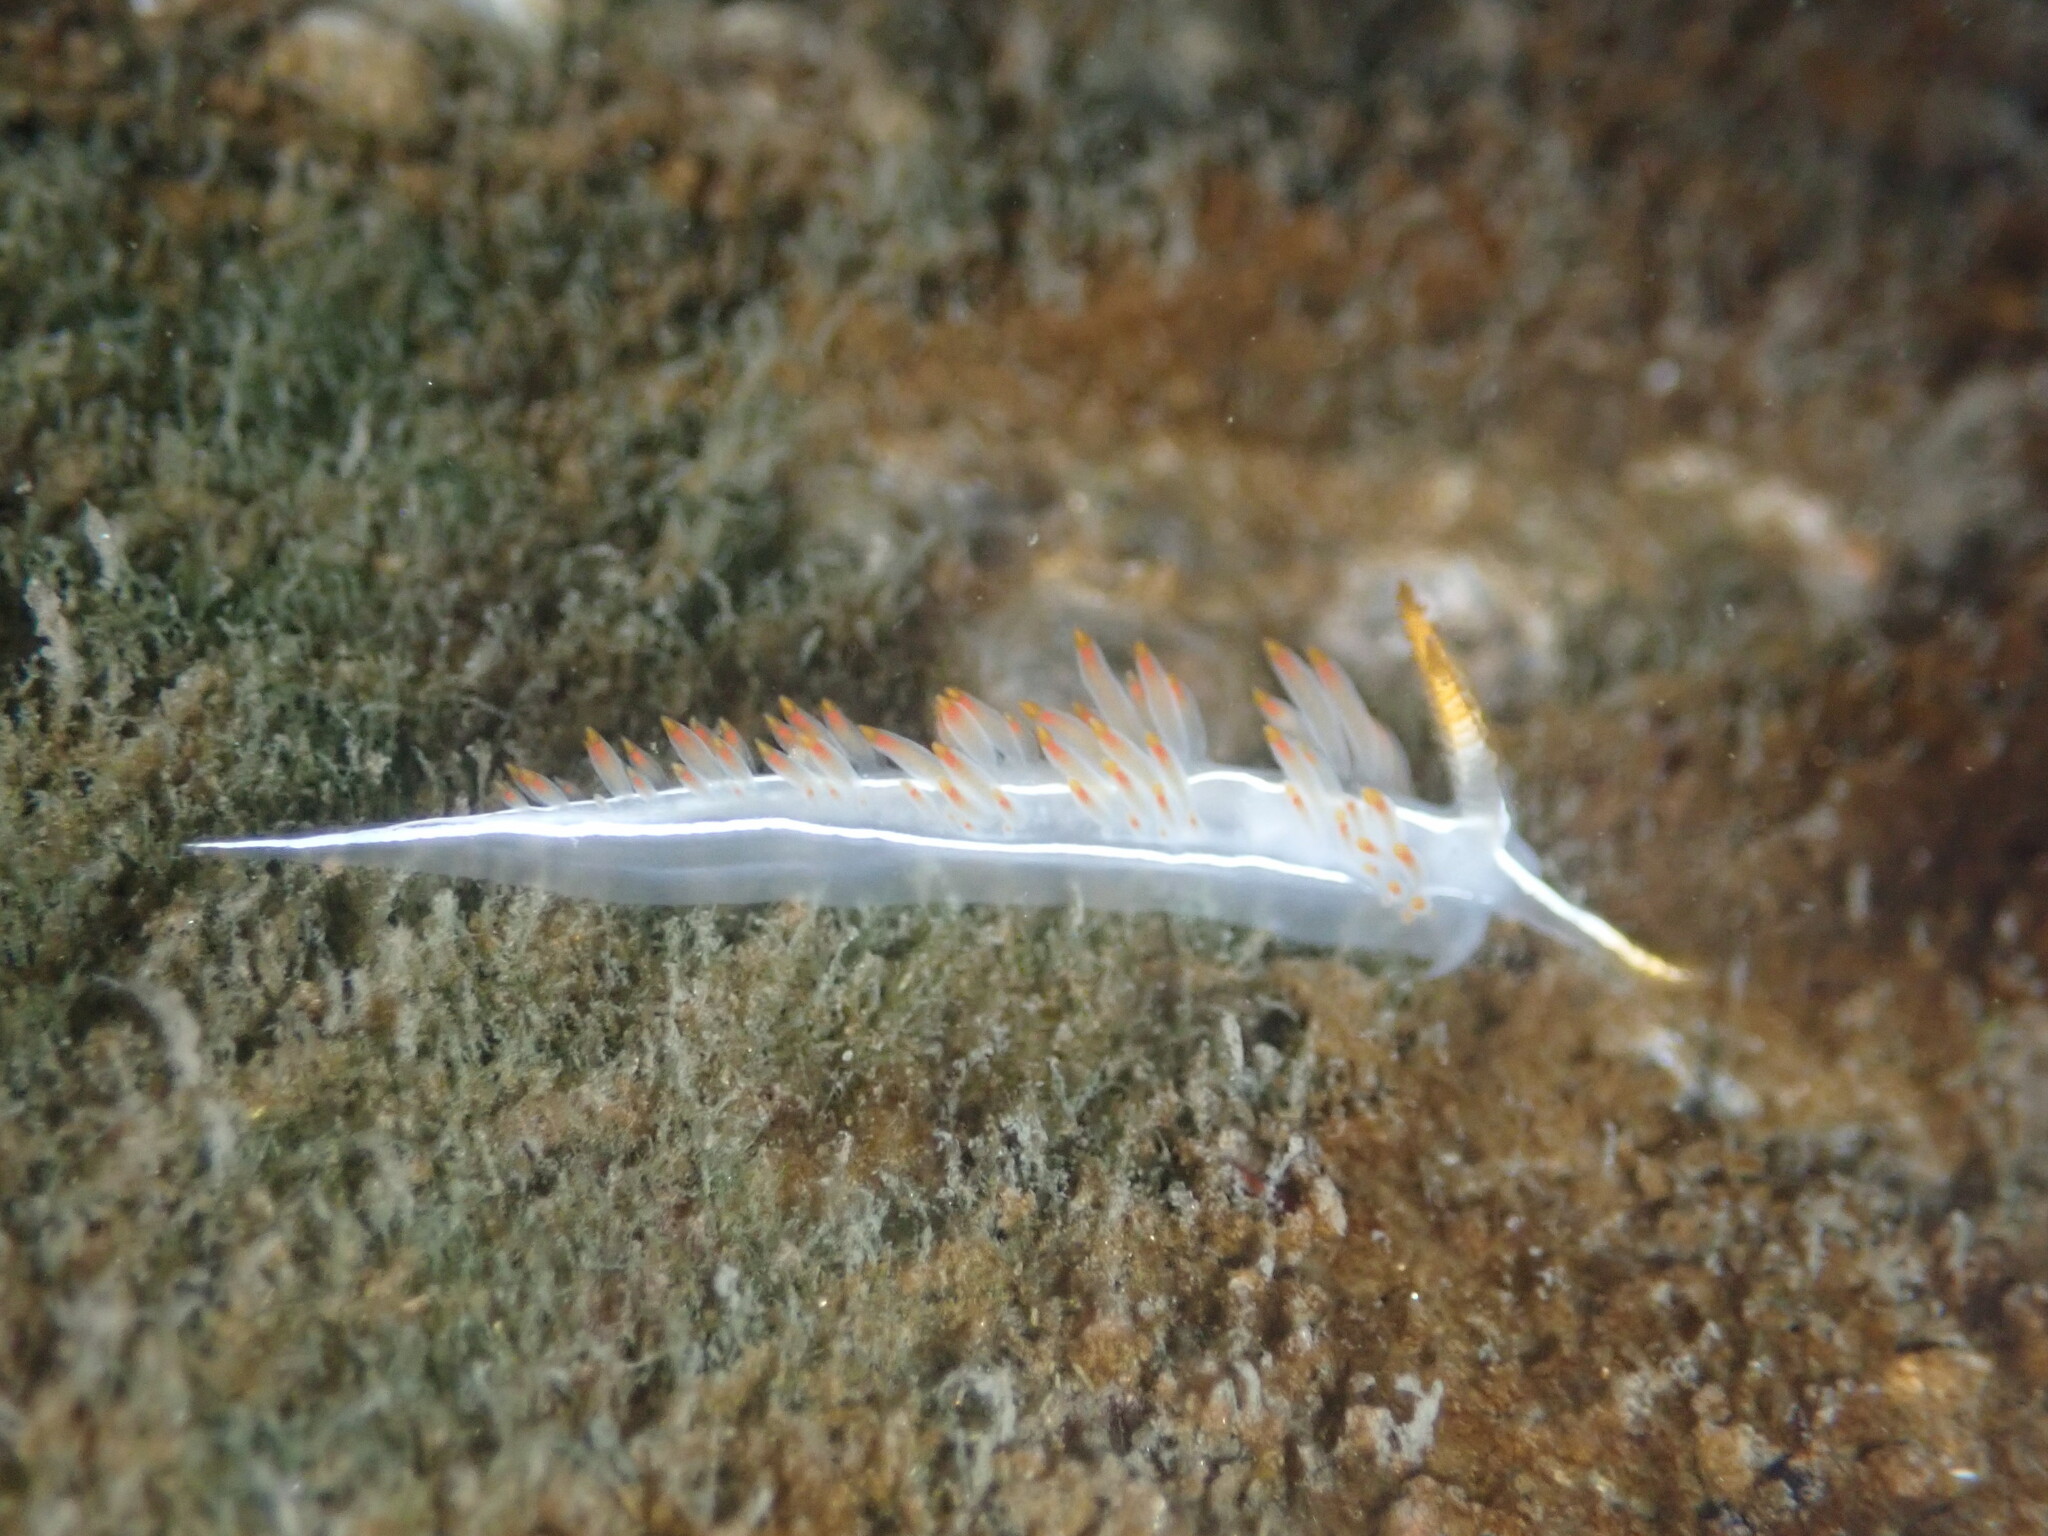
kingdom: Animalia
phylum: Mollusca
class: Gastropoda
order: Nudibranchia
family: Coryphellidae
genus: Coryphella
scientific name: Coryphella trilineata
